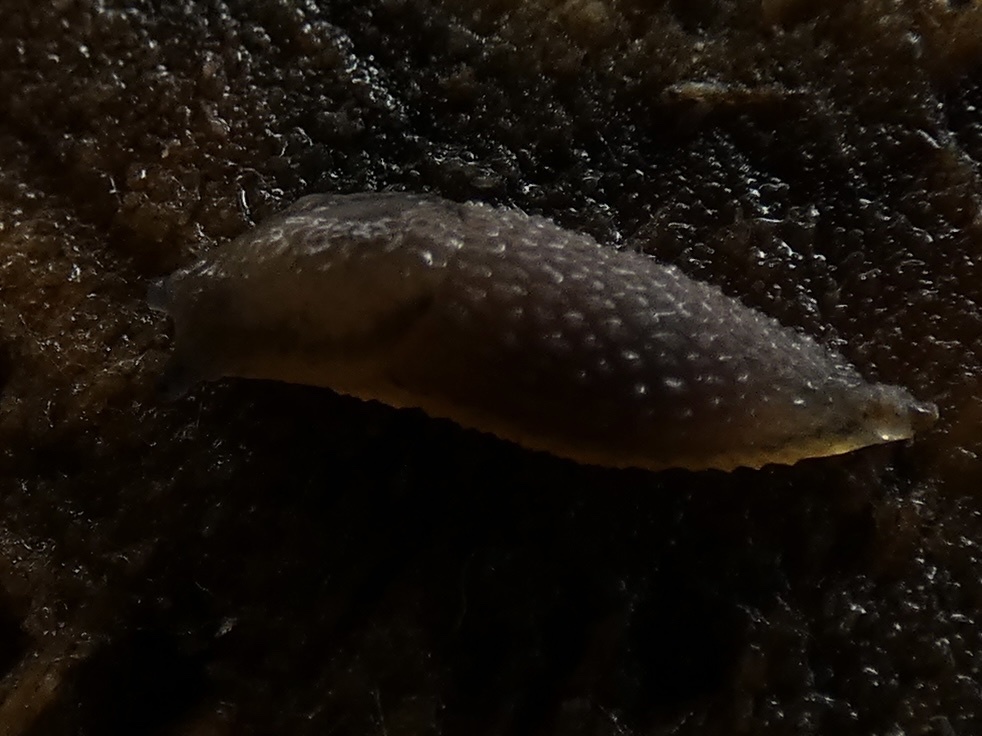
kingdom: Animalia
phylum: Mollusca
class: Gastropoda
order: Stylommatophora
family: Arionidae
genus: Arion
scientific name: Arion intermedius
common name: Hedgehog slug
